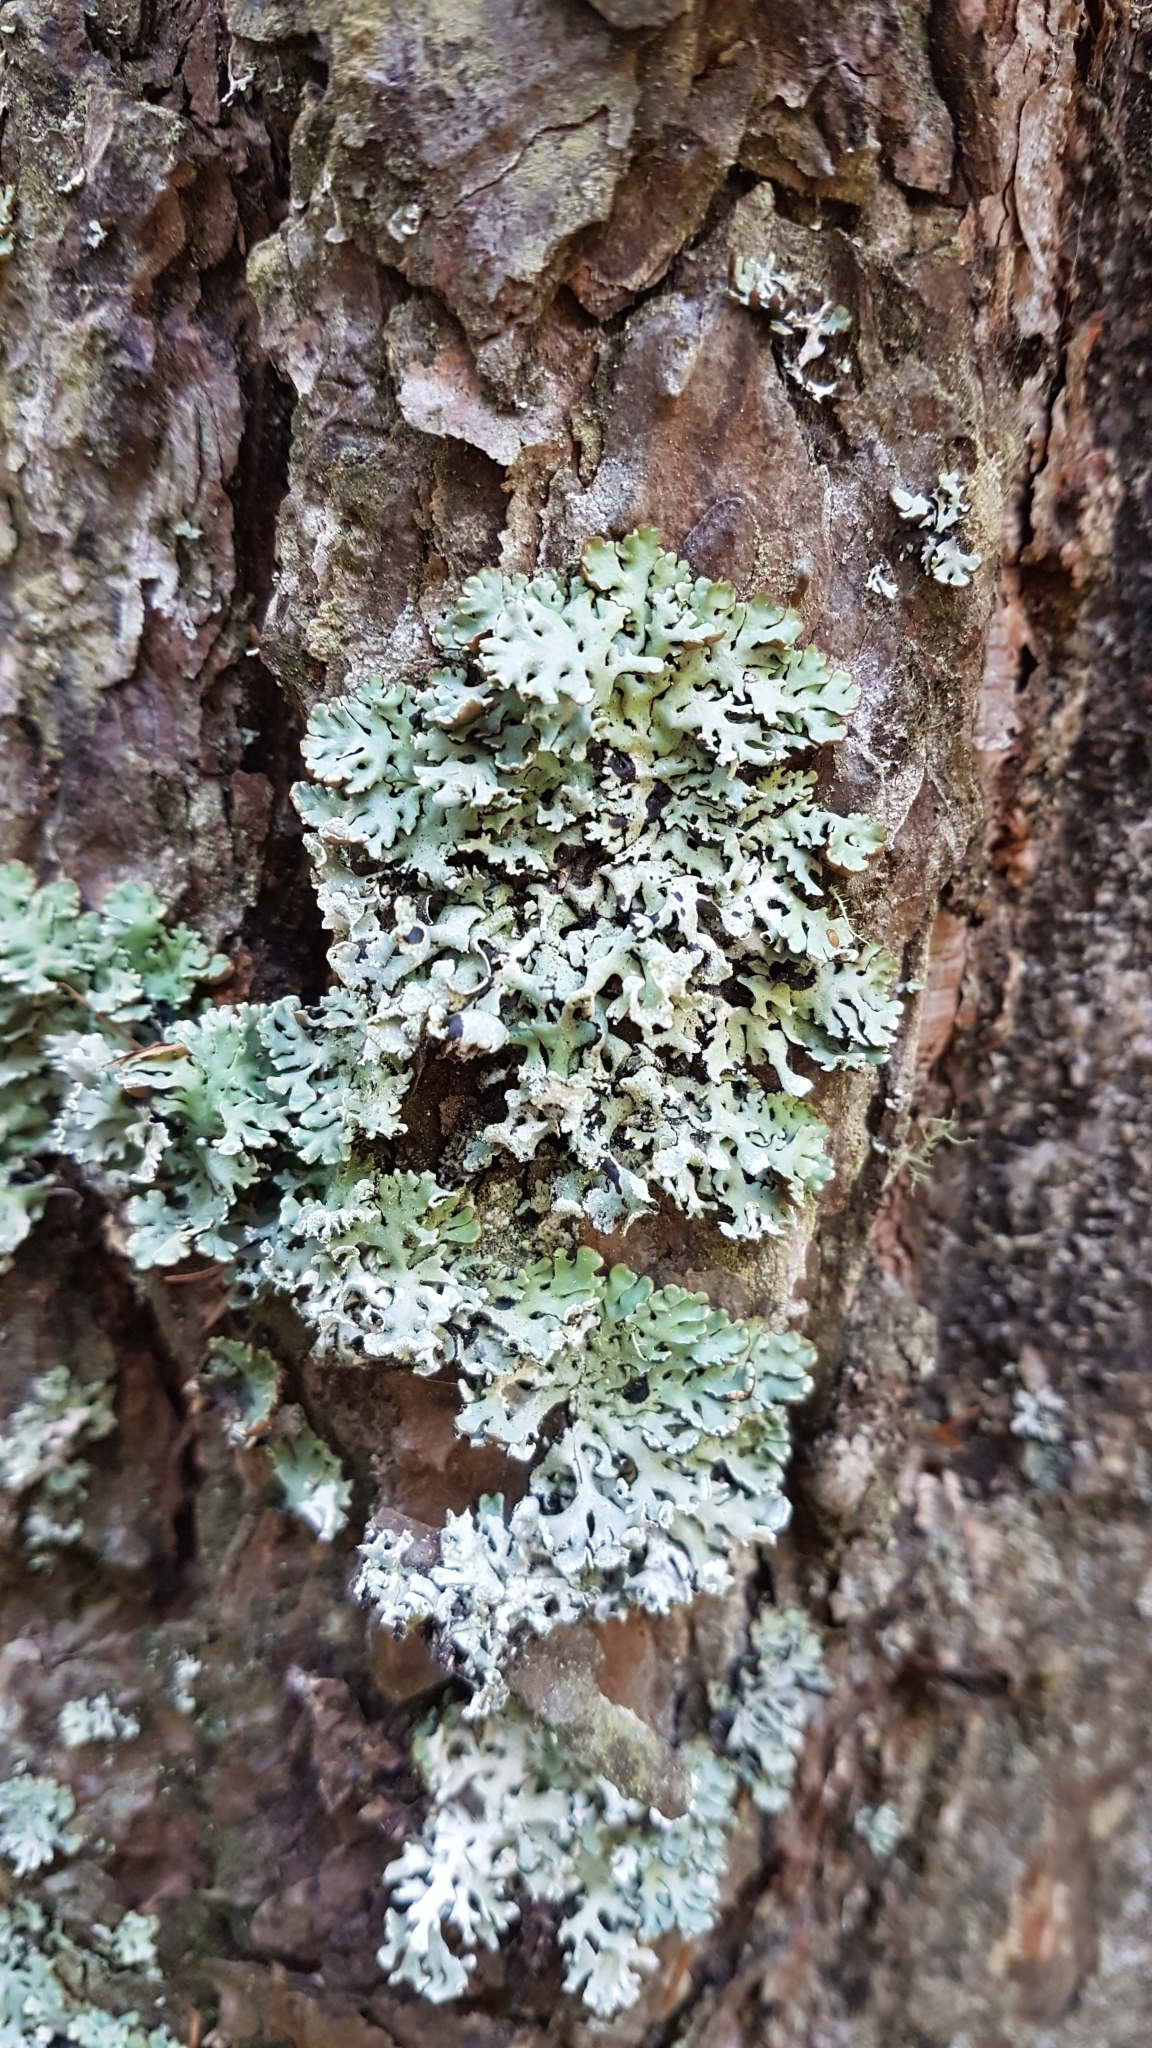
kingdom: Fungi
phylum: Ascomycota
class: Lecanoromycetes
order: Lecanorales
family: Parmeliaceae
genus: Hypogymnia
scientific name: Hypogymnia physodes
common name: Dark crottle
